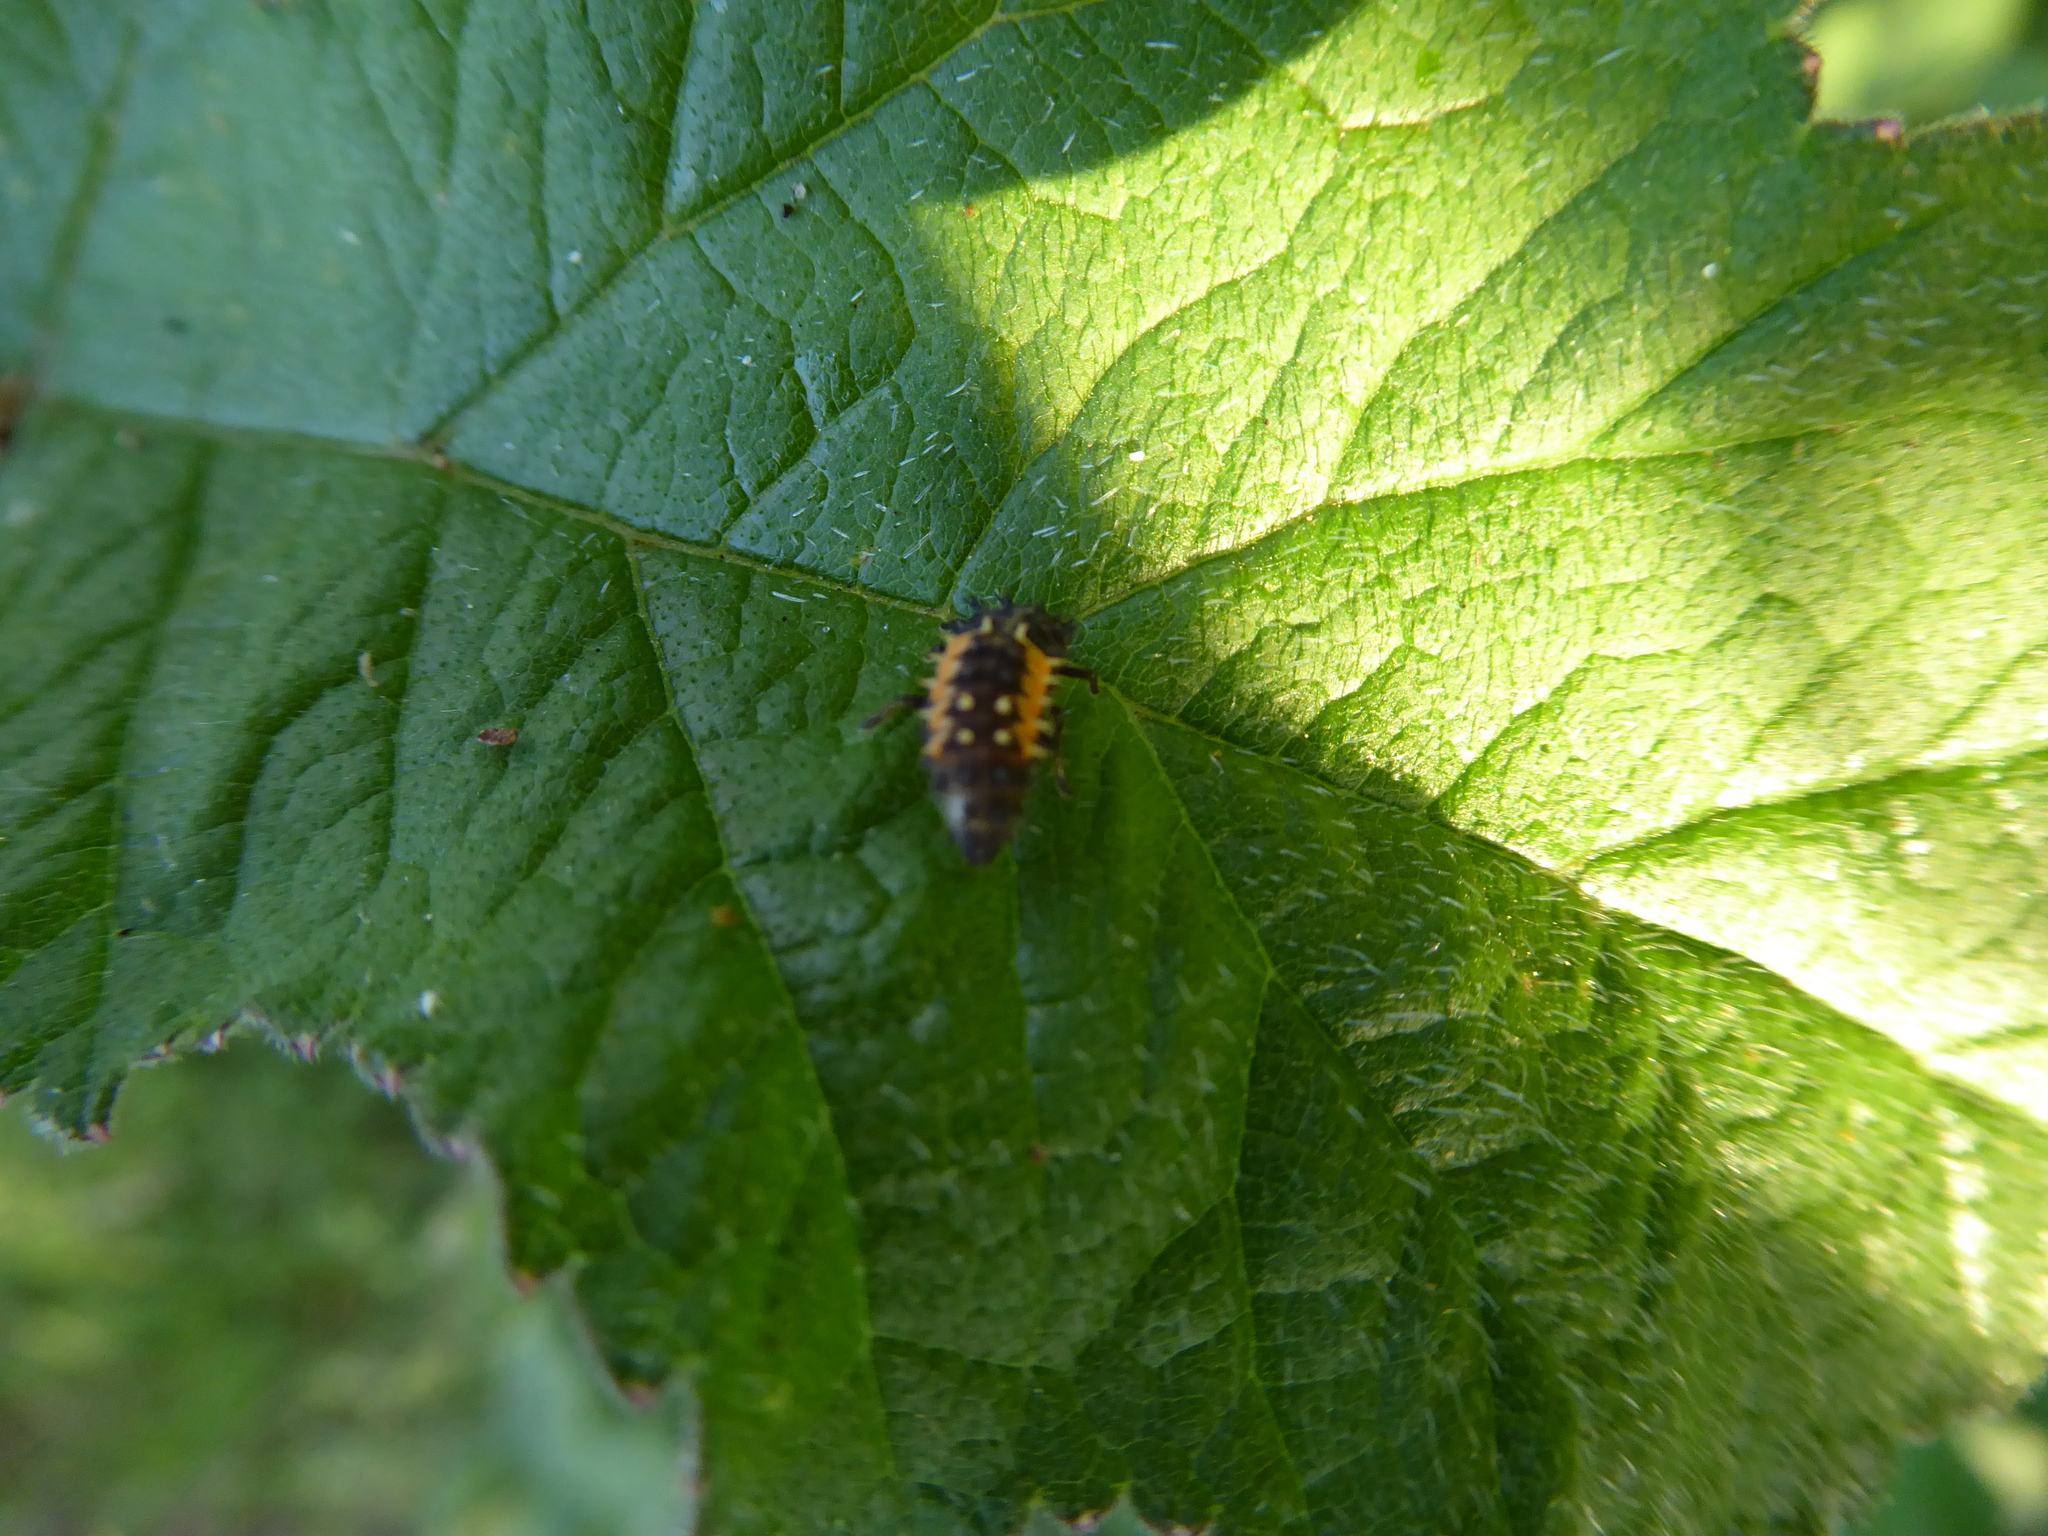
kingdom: Animalia
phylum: Arthropoda
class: Insecta
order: Coleoptera
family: Coccinellidae
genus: Harmonia
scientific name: Harmonia axyridis
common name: Harlequin ladybird
